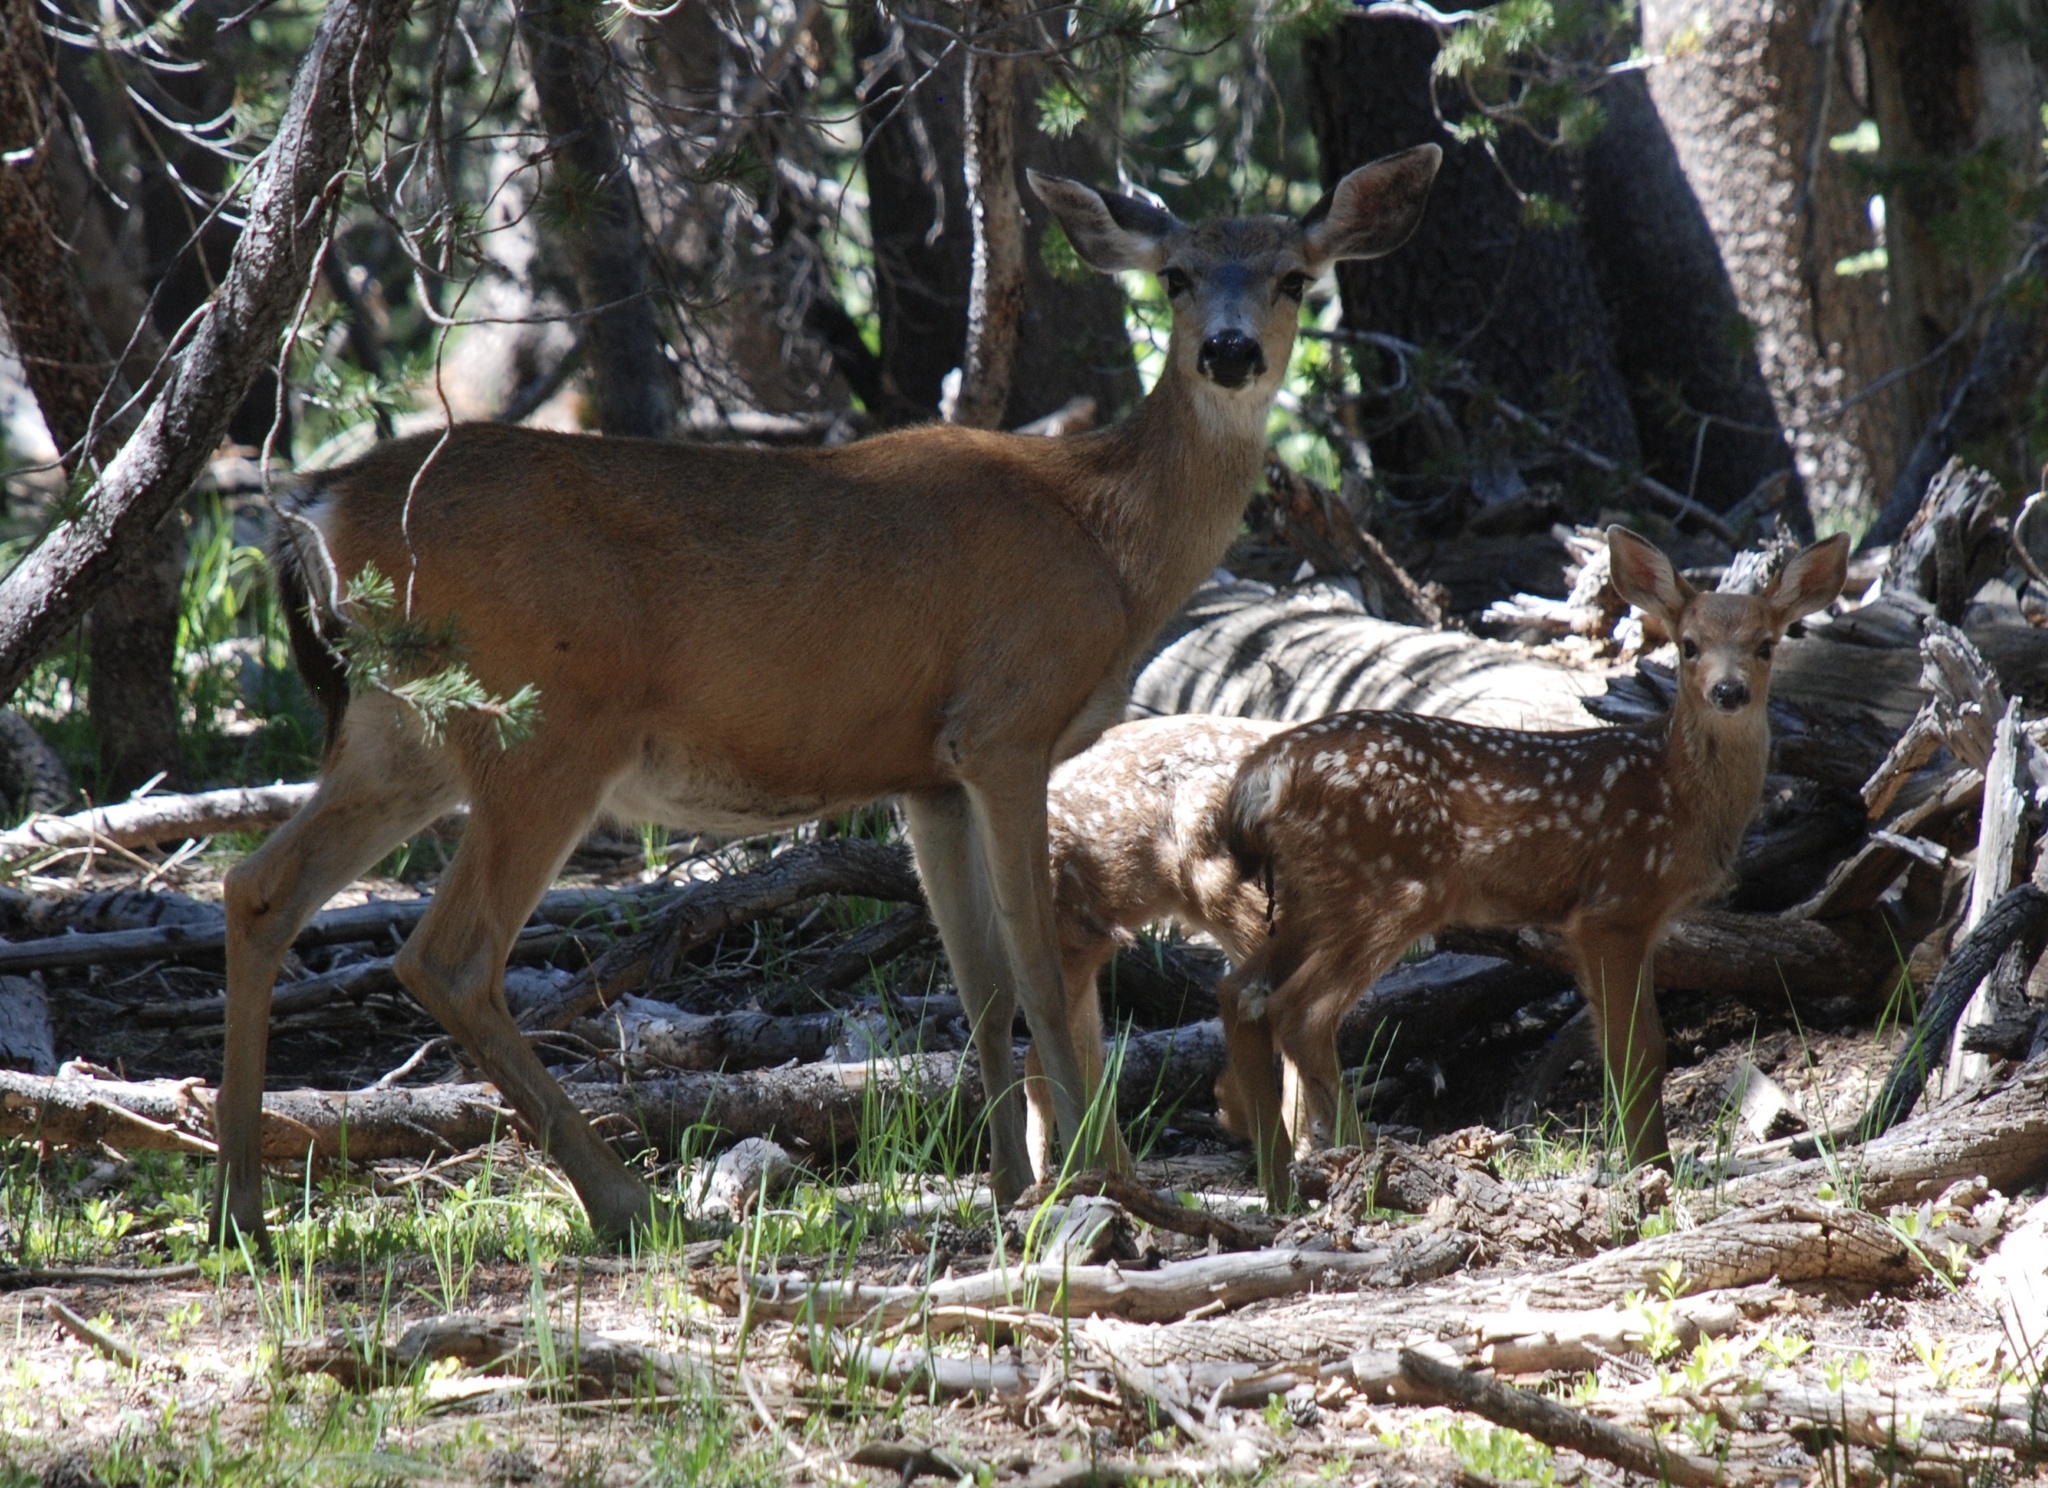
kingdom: Animalia
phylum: Chordata
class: Mammalia
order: Artiodactyla
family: Cervidae
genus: Odocoileus
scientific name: Odocoileus hemionus
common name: Mule deer
